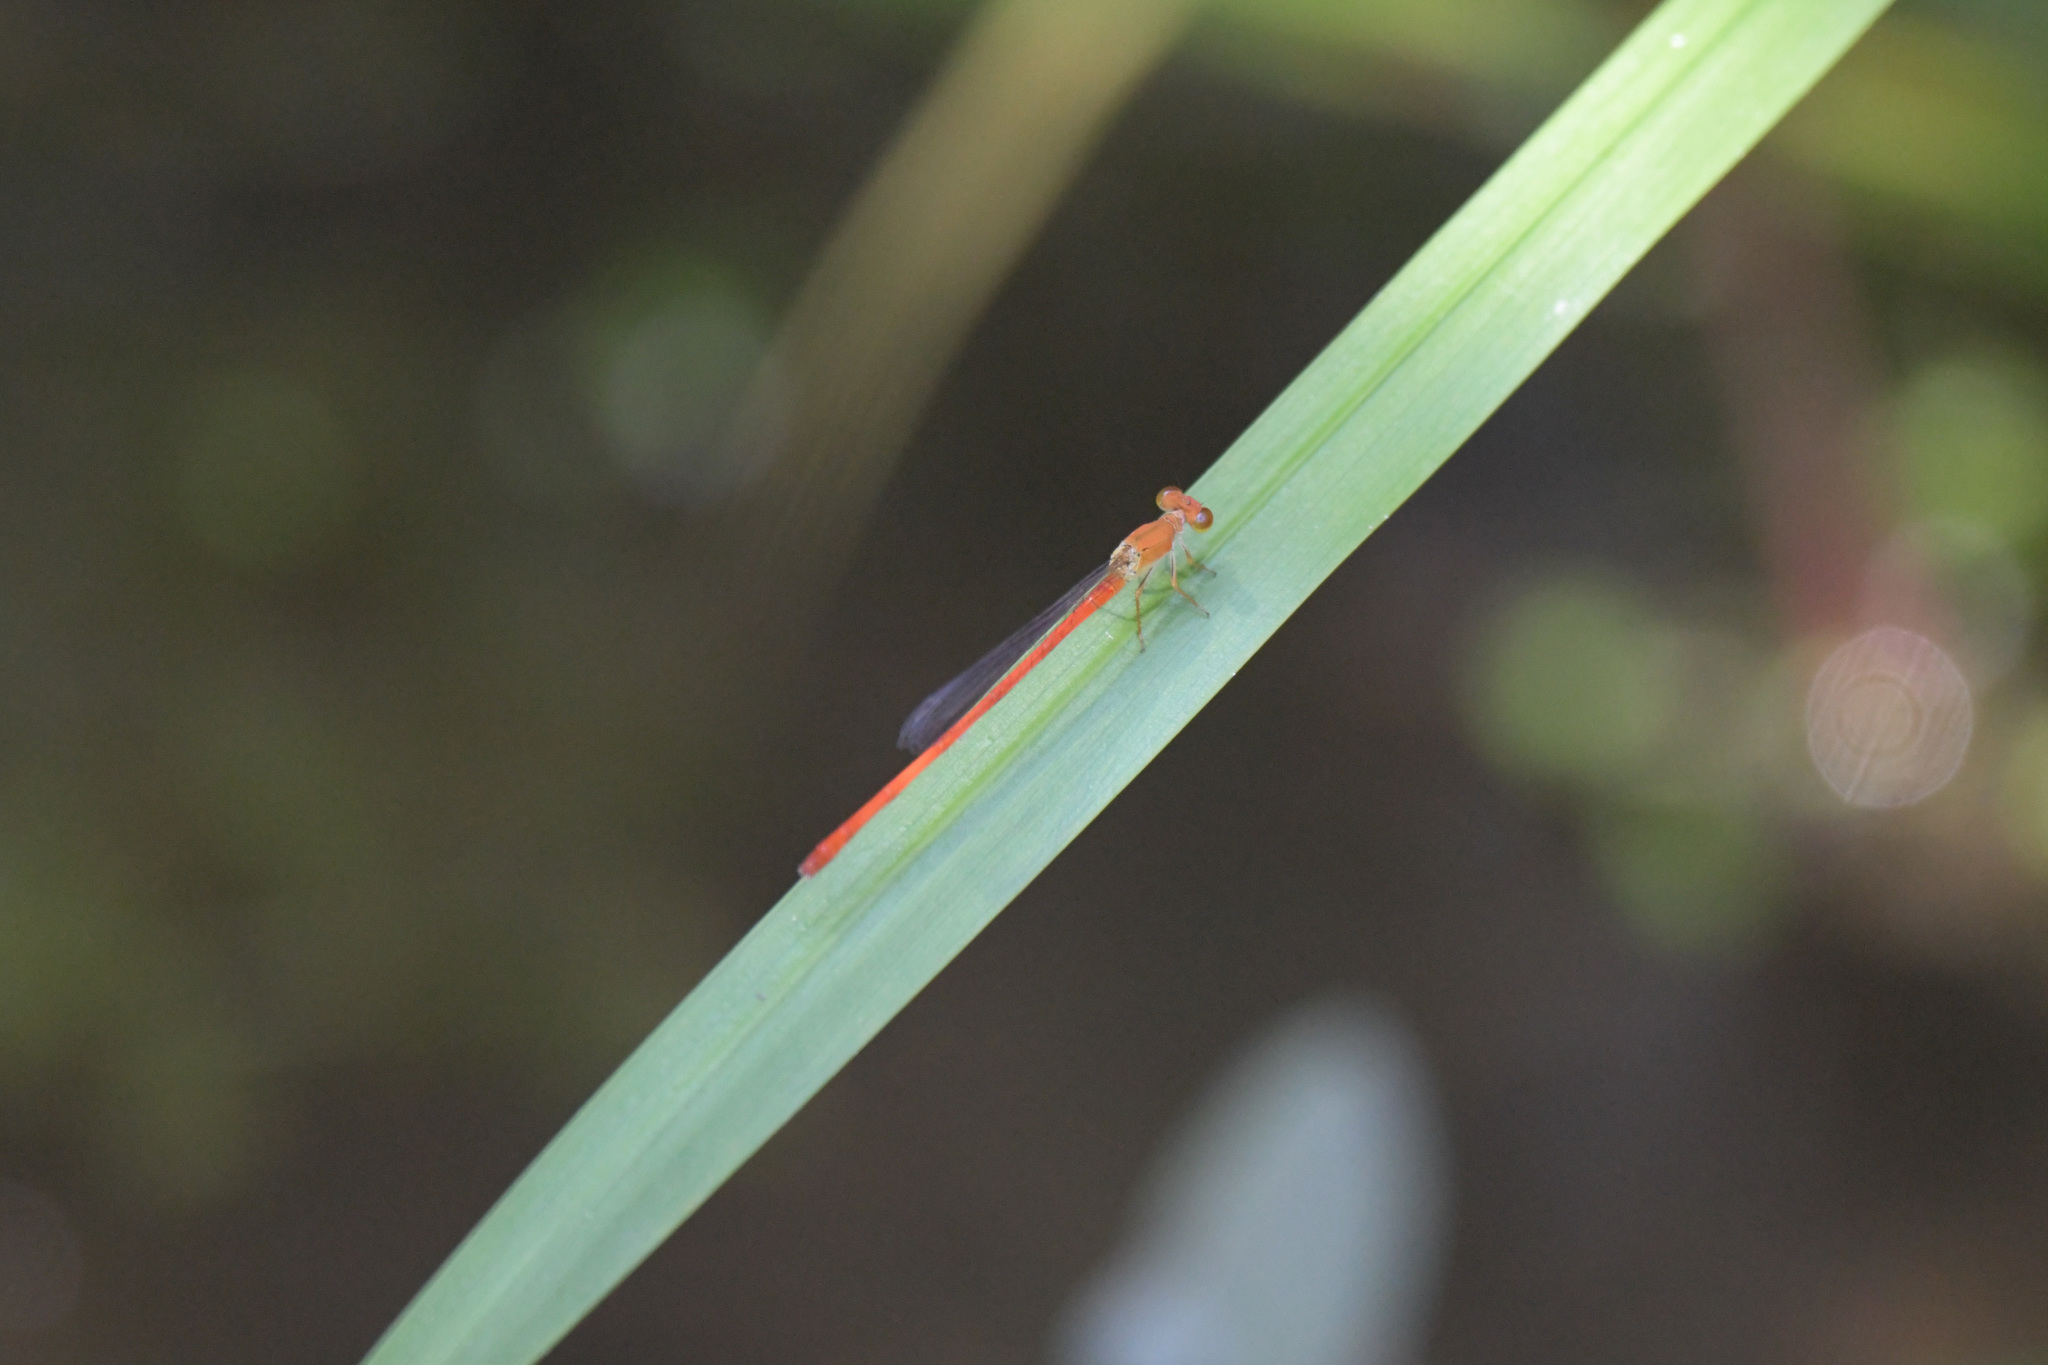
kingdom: Animalia
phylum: Arthropoda
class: Insecta
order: Odonata
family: Coenagrionidae
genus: Ceriagrion
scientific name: Ceriagrion nipponicum
